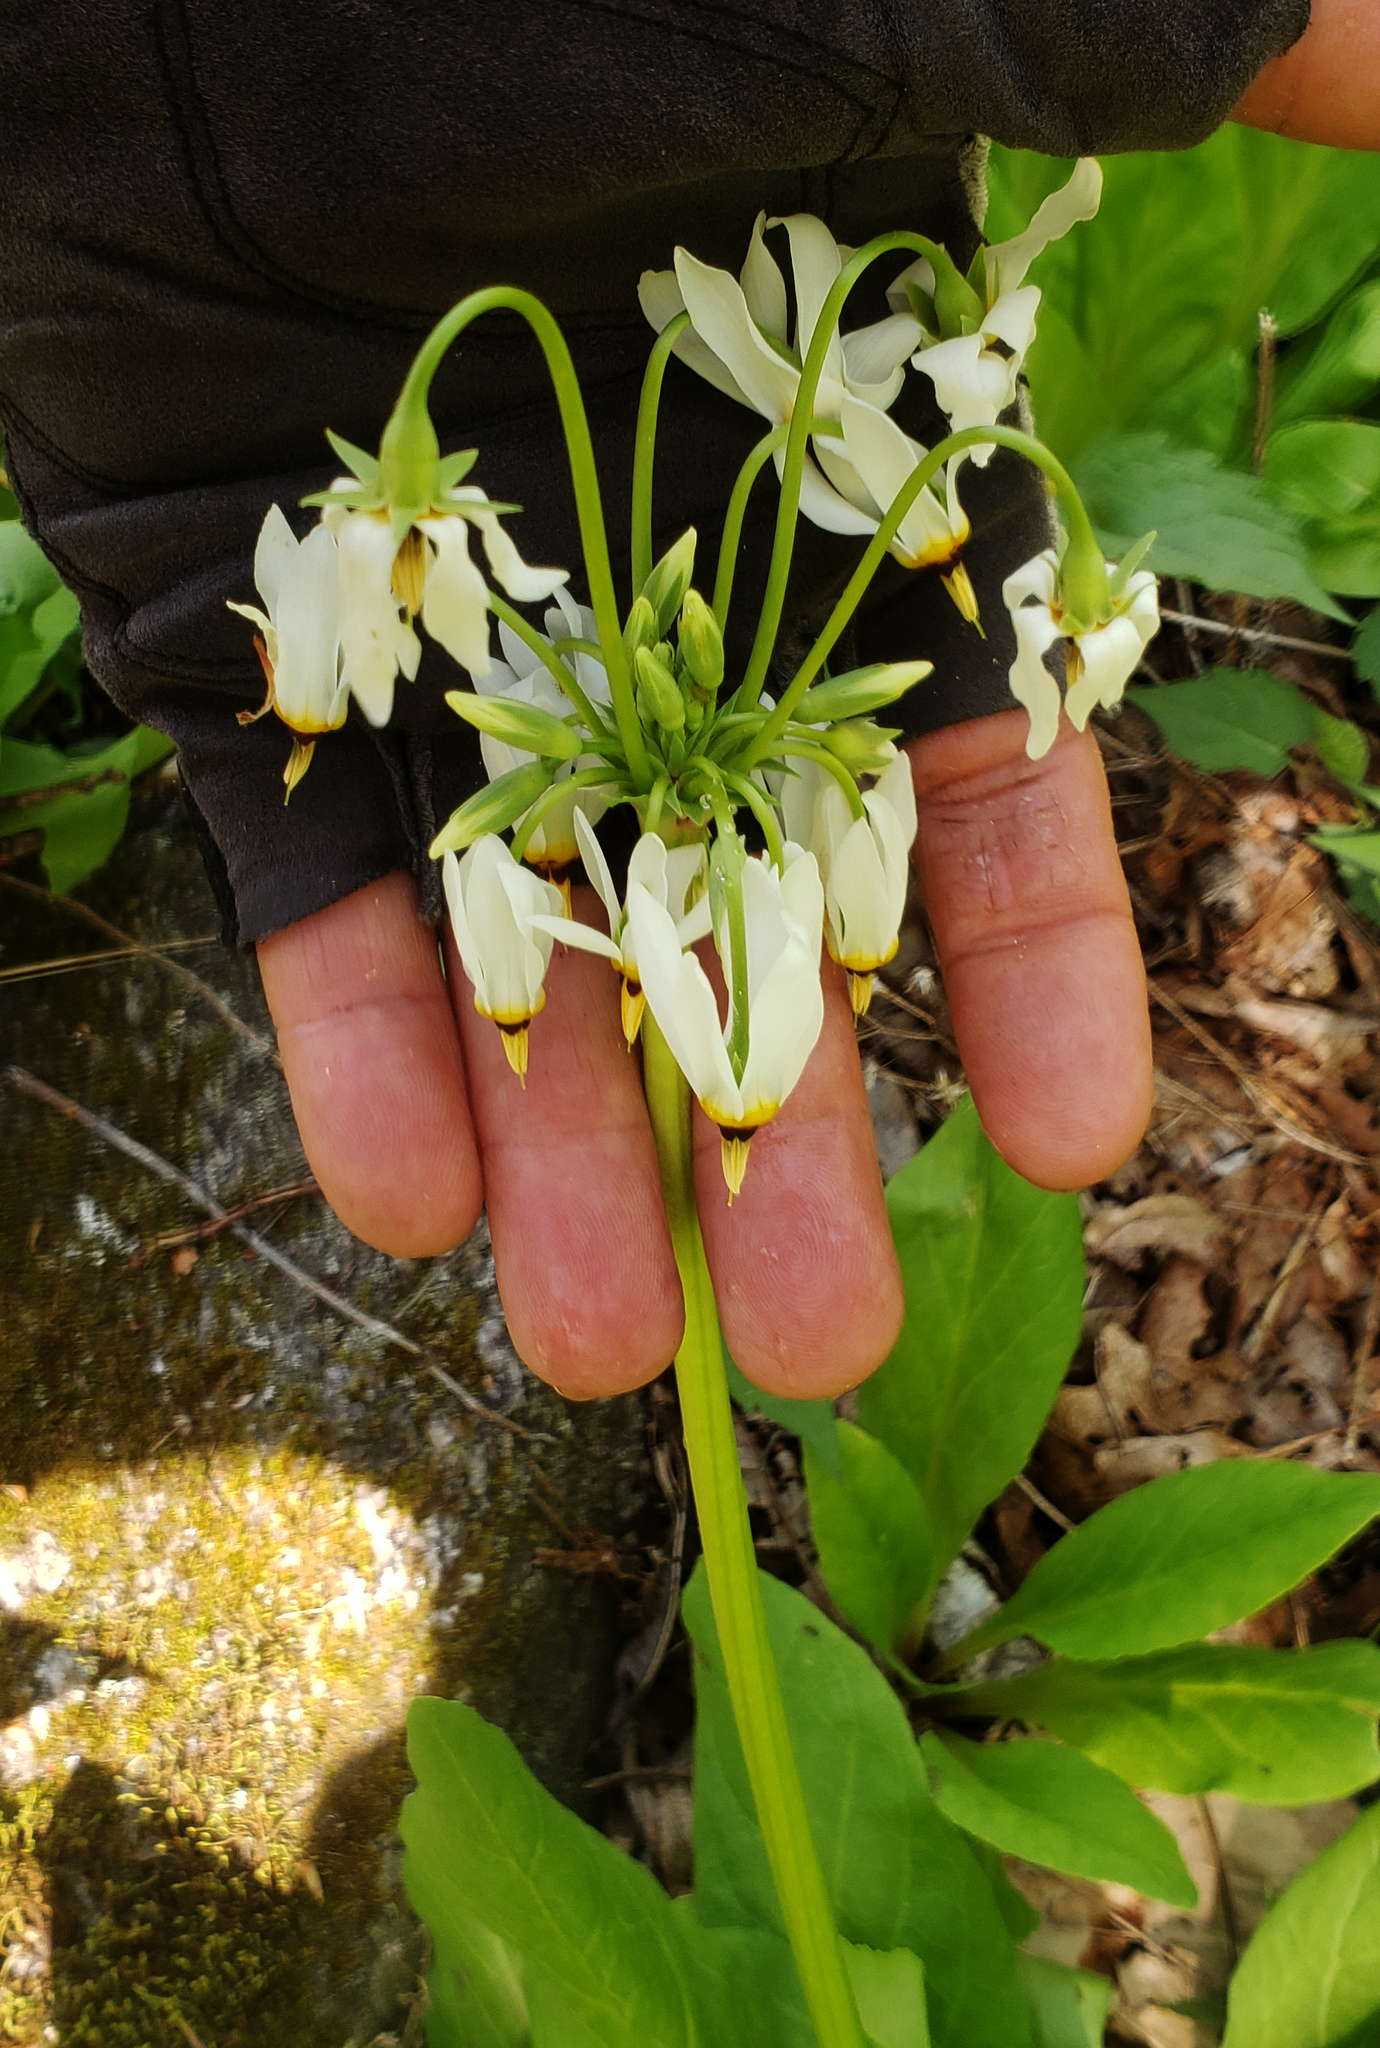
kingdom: Plantae
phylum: Tracheophyta
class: Magnoliopsida
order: Ericales
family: Primulaceae
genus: Dodecatheon
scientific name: Dodecatheon meadia
